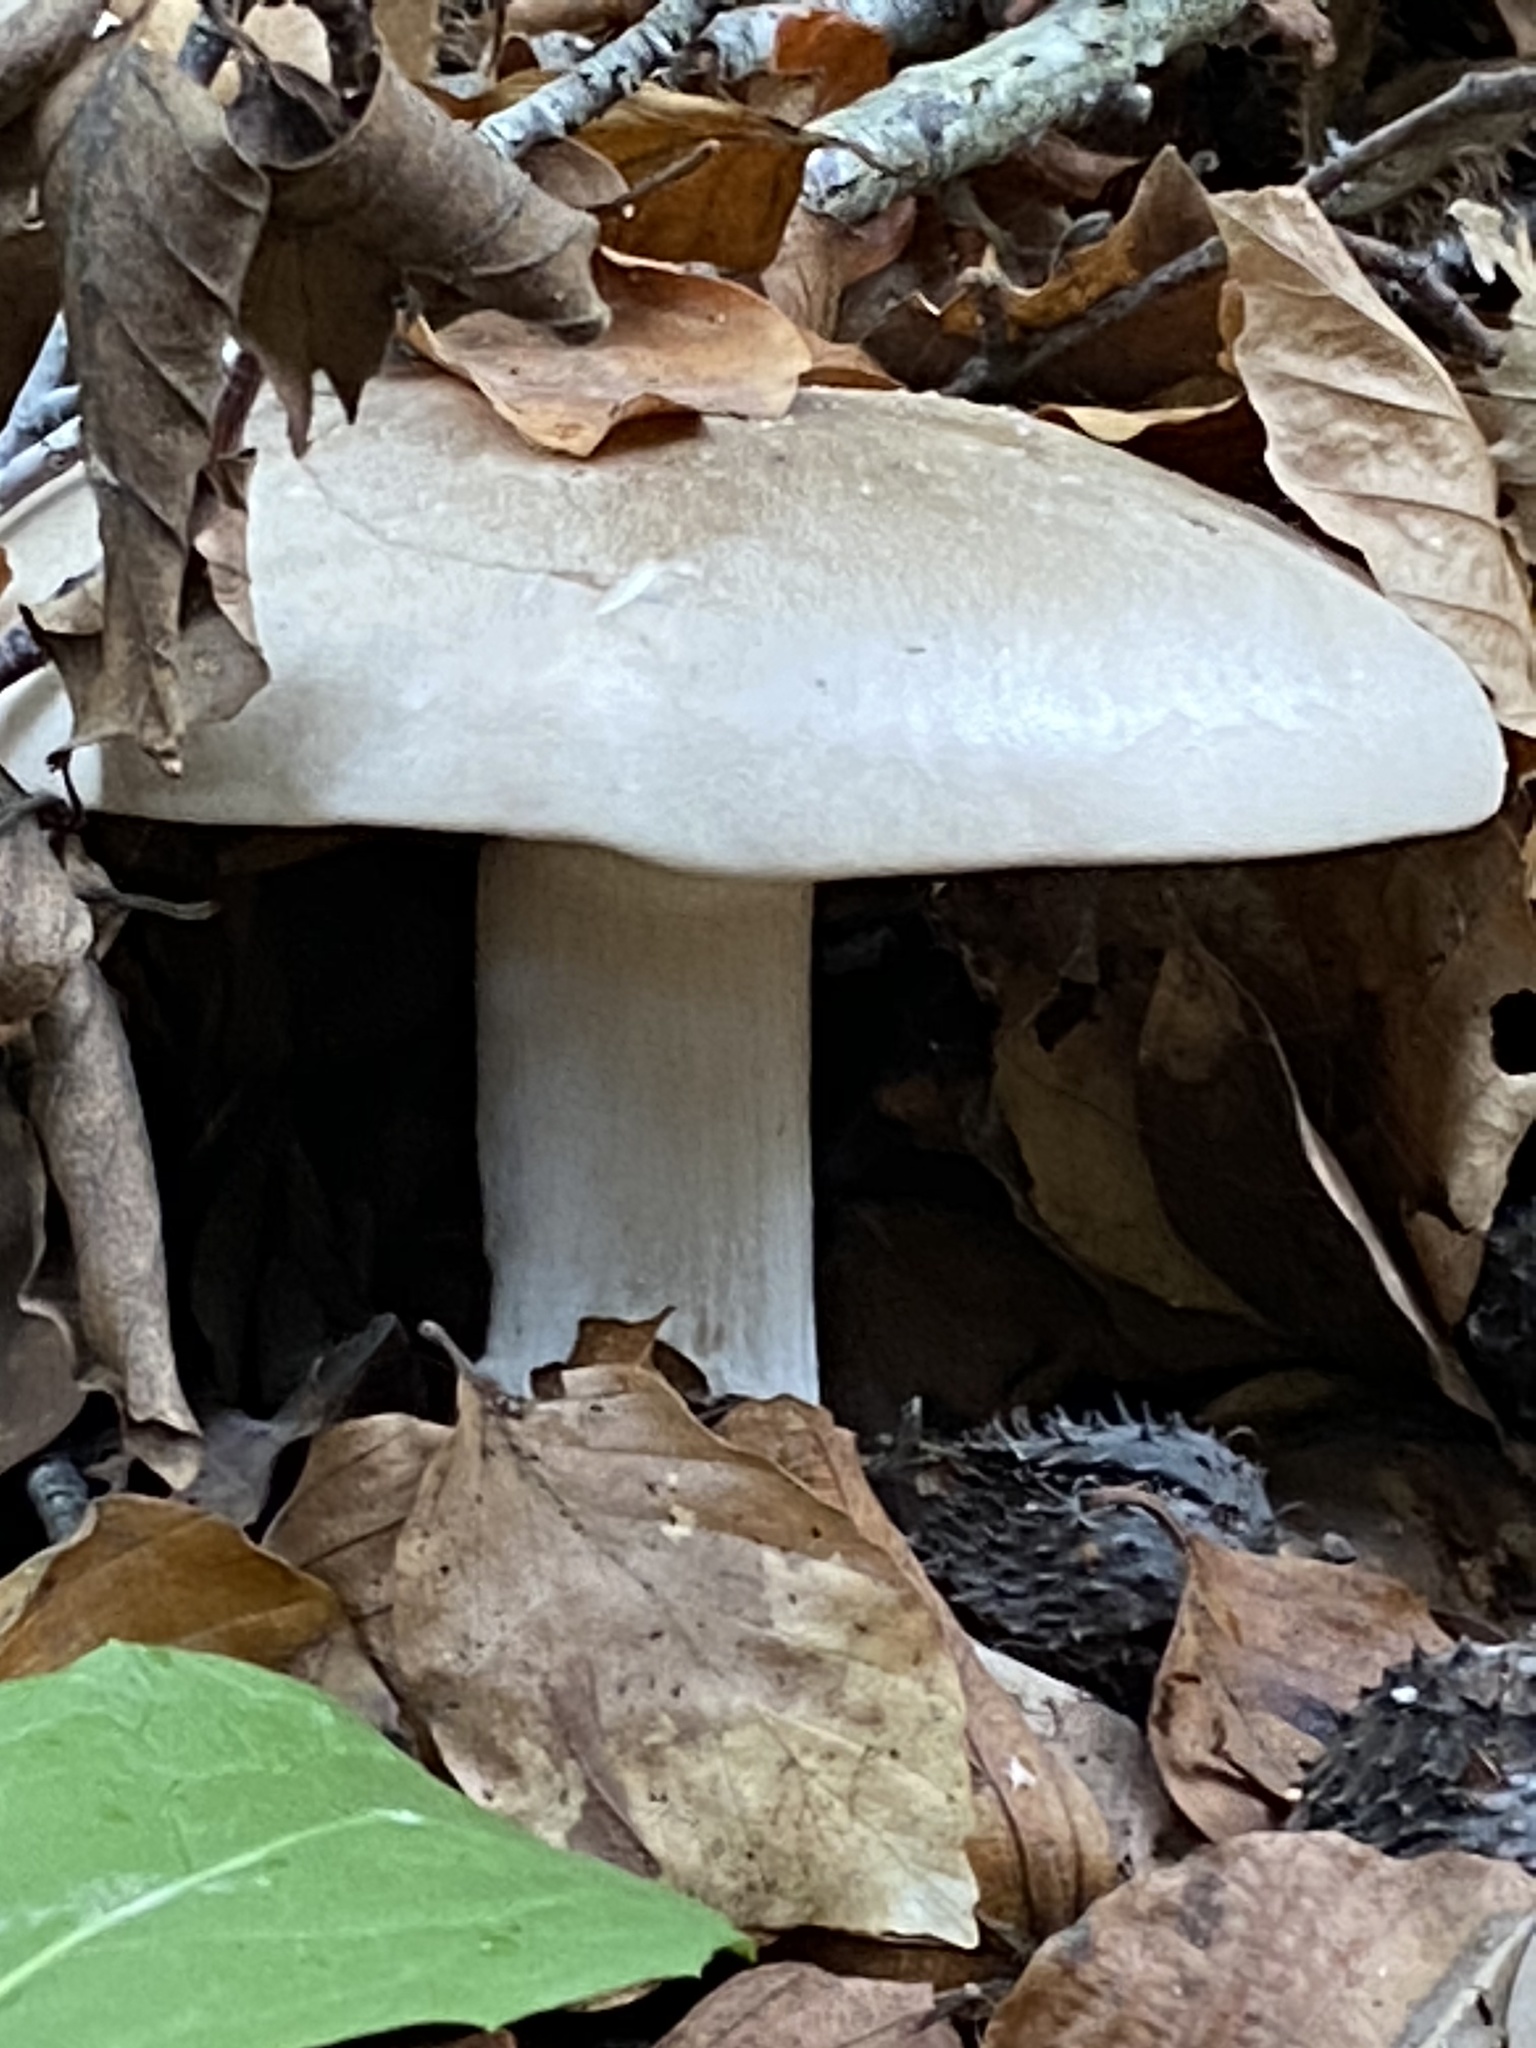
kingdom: Fungi
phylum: Basidiomycota
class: Agaricomycetes
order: Agaricales
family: Tricholomataceae
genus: Clitocybe
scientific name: Clitocybe nebularis
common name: Clouded agaric
